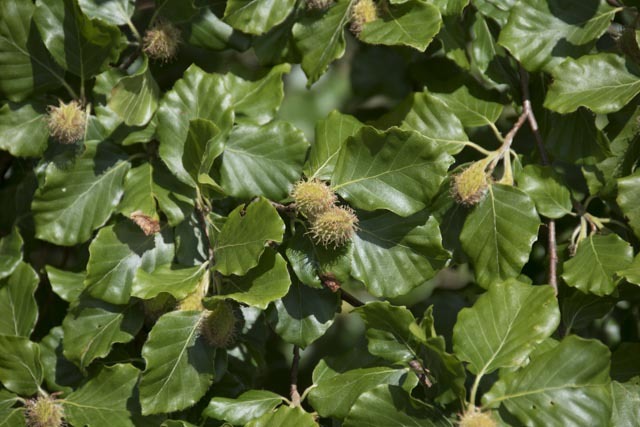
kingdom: Plantae
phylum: Tracheophyta
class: Magnoliopsida
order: Fagales
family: Fagaceae
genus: Fagus
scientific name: Fagus sylvatica
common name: Beech
